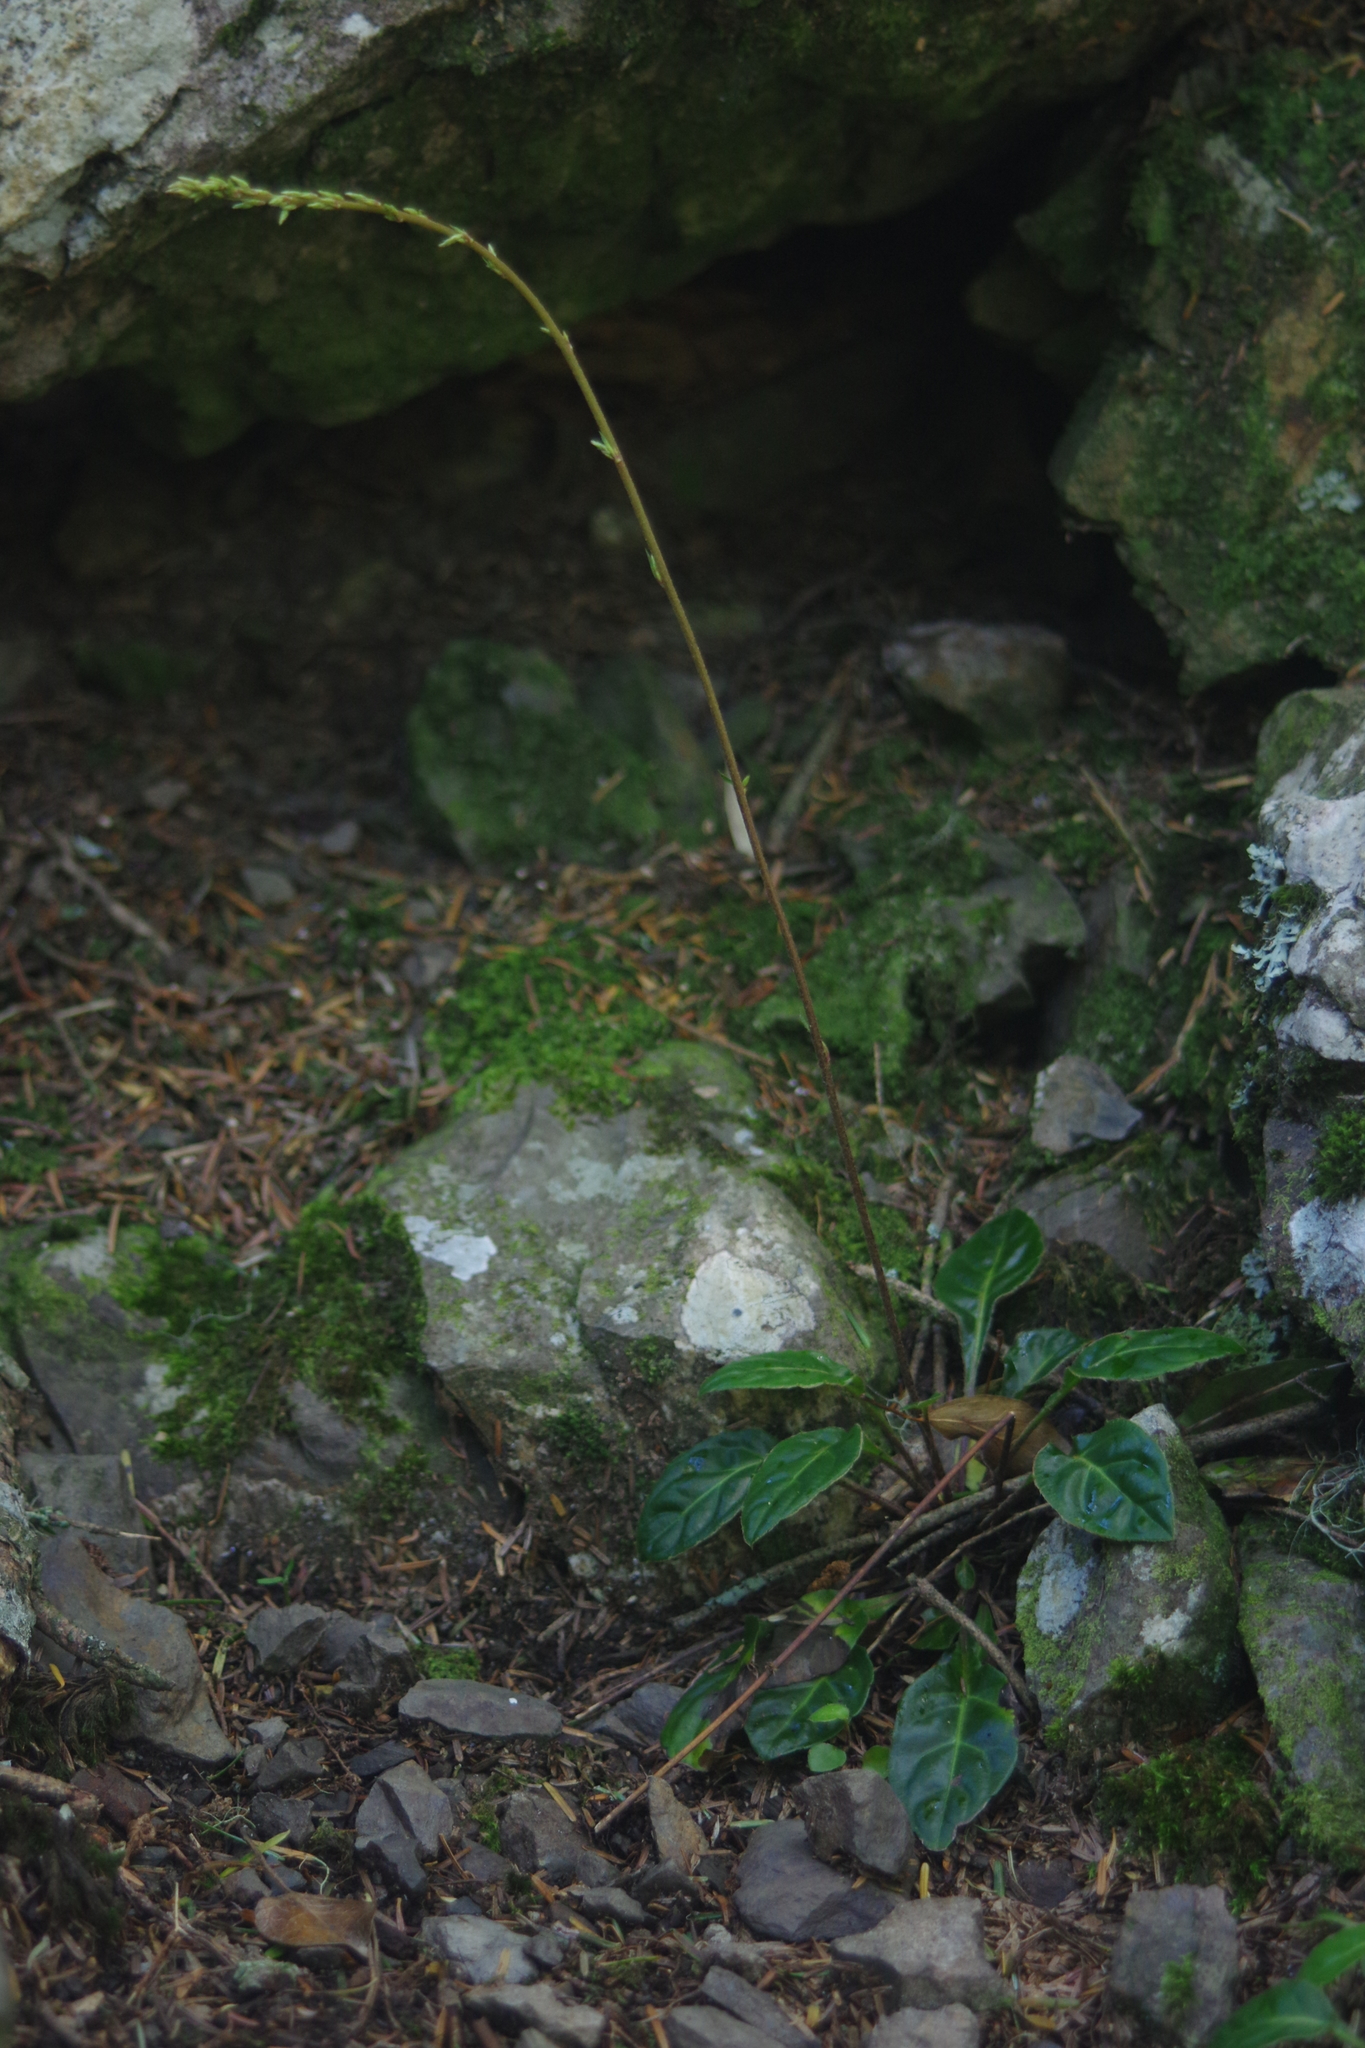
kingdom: Plantae
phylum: Tracheophyta
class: Magnoliopsida
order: Asterales
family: Asteraceae
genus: Ainsliaea
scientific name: Ainsliaea henryi
